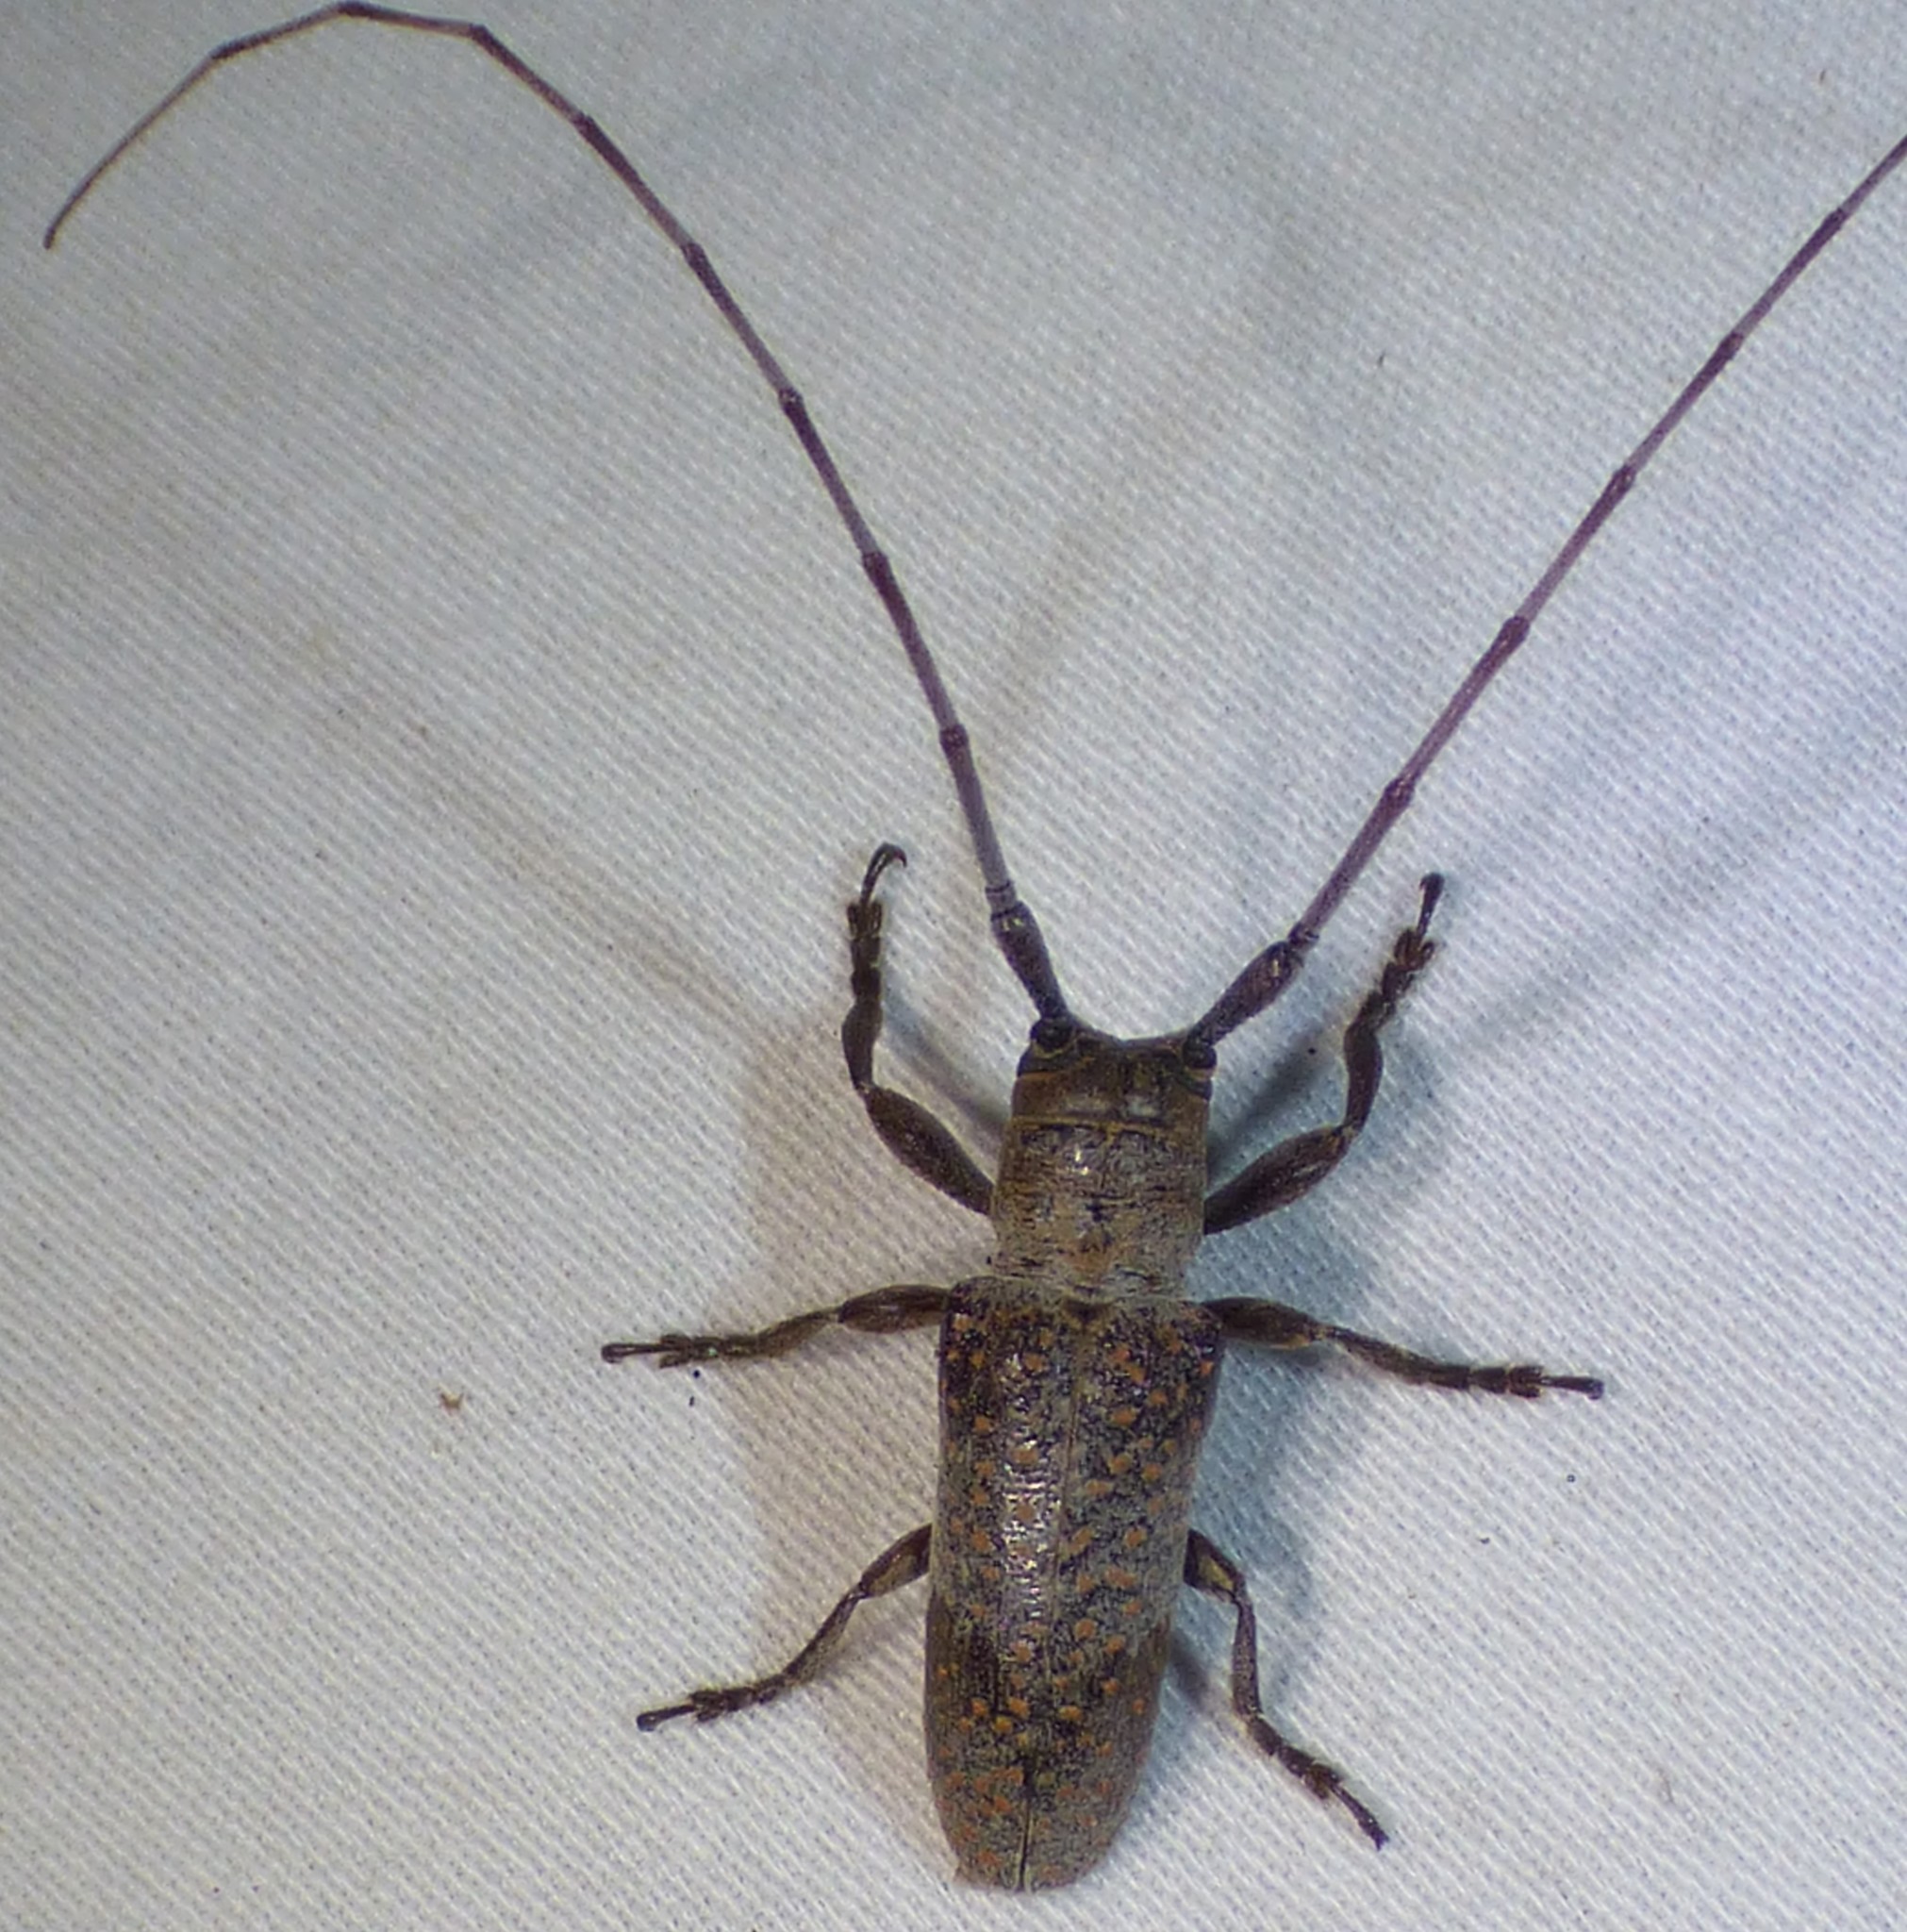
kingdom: Animalia
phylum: Arthropoda
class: Insecta
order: Coleoptera
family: Cerambycidae
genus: Oncideres
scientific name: Oncideres cingulata
